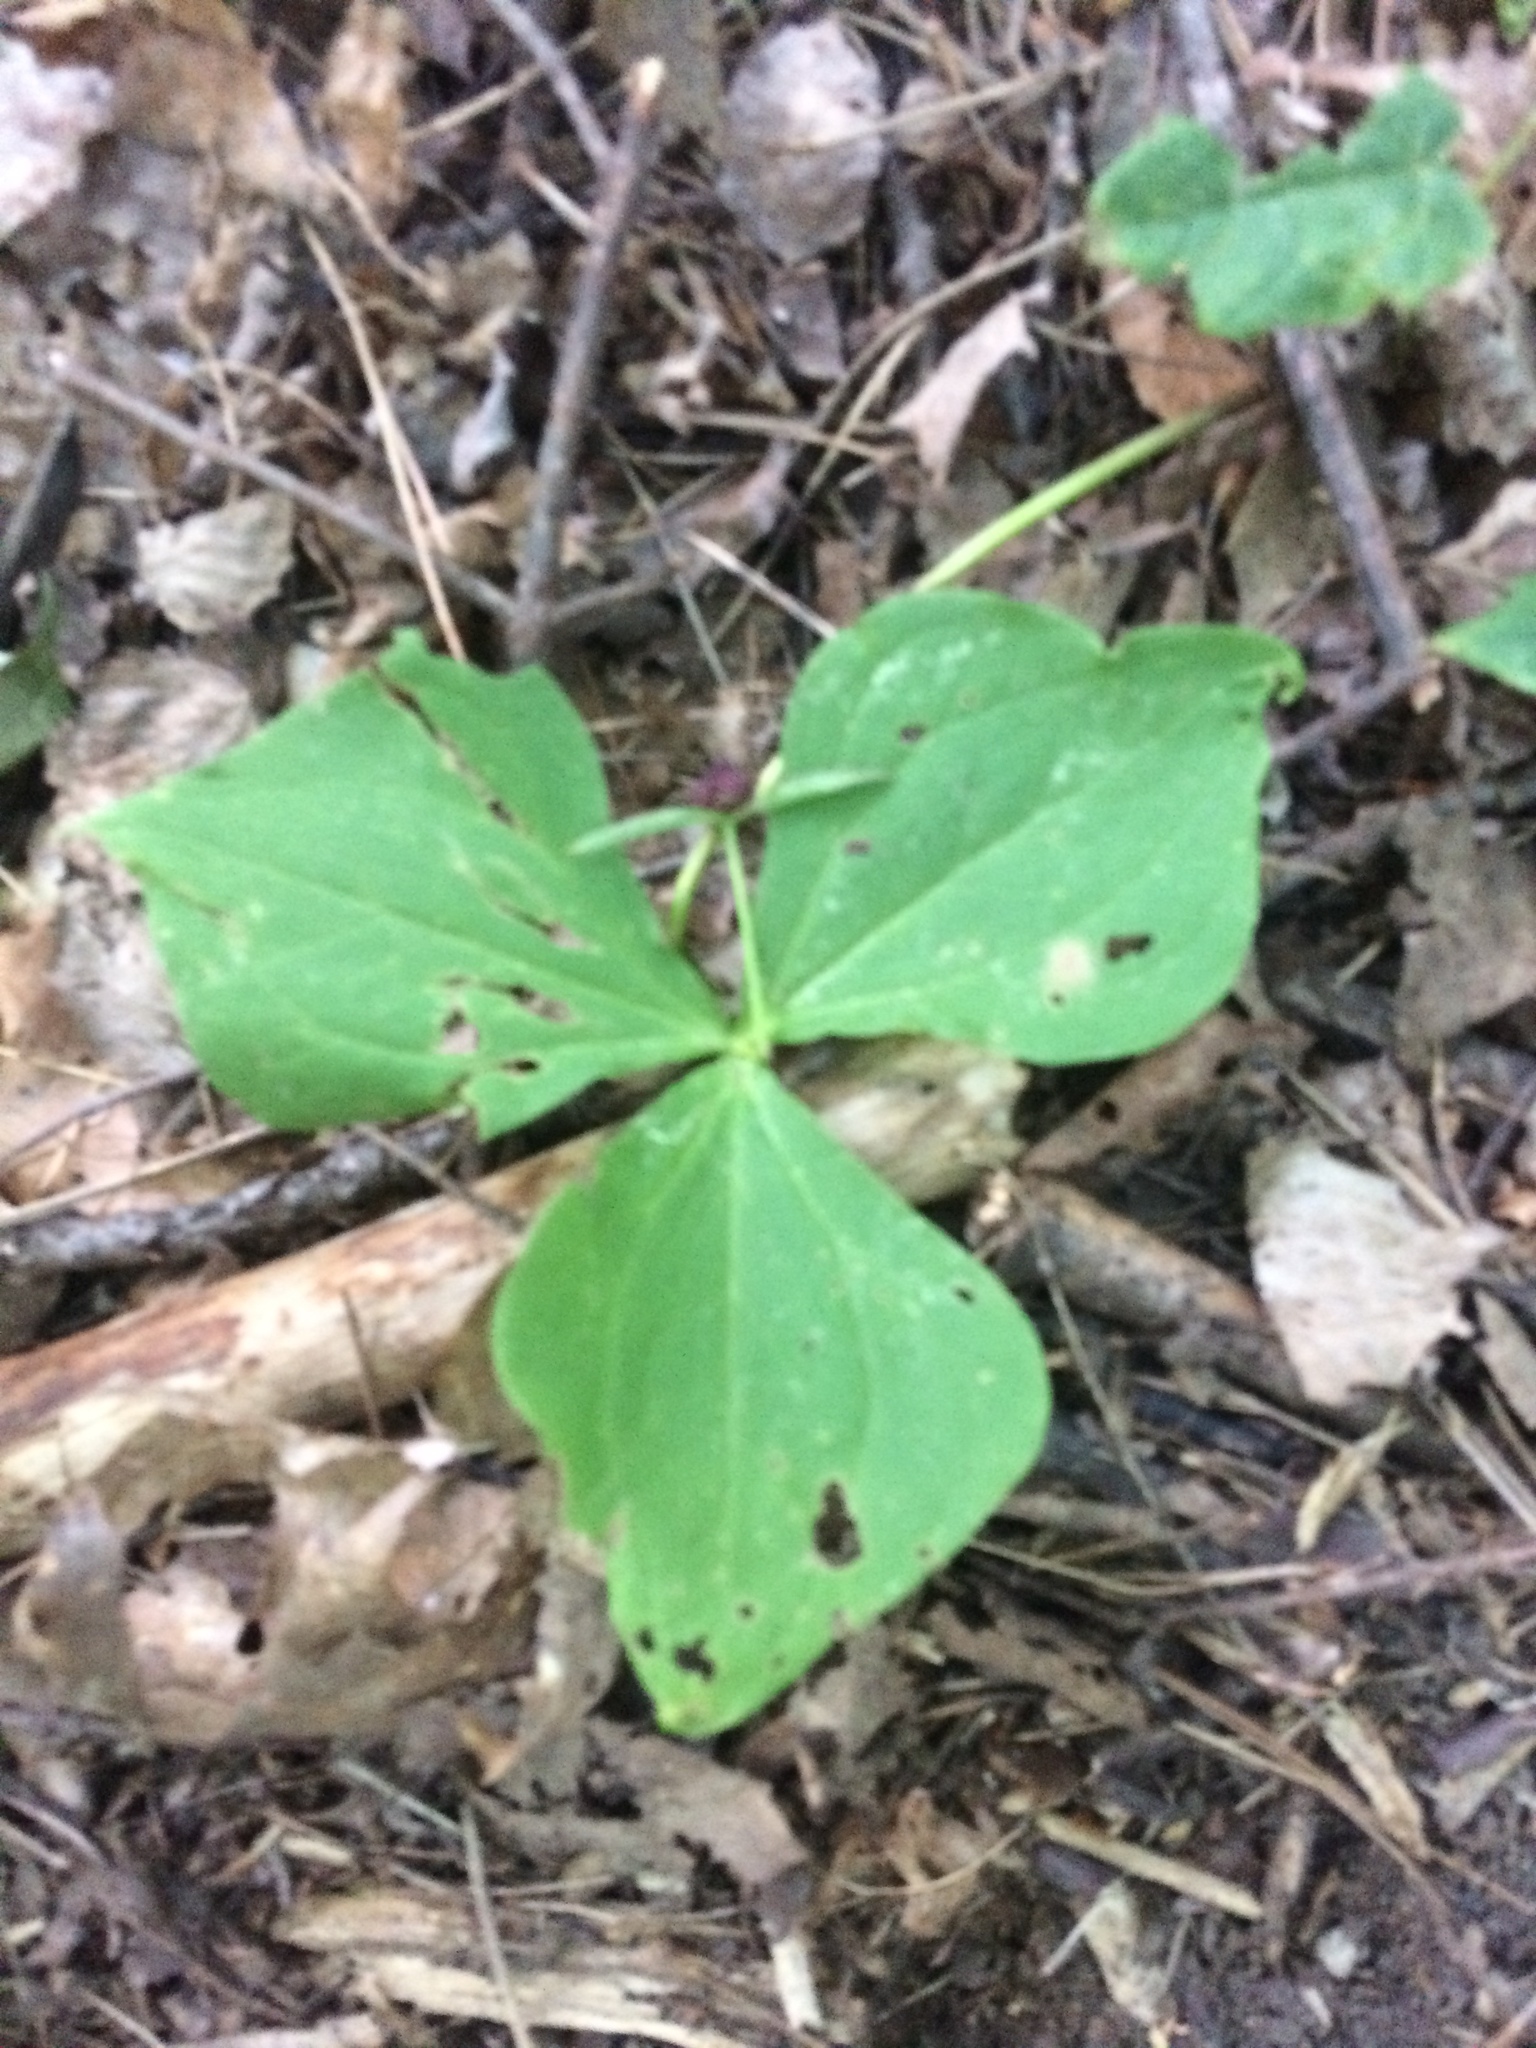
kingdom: Plantae
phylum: Tracheophyta
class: Liliopsida
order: Liliales
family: Melanthiaceae
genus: Trillium
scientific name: Trillium erectum
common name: Purple trillium
